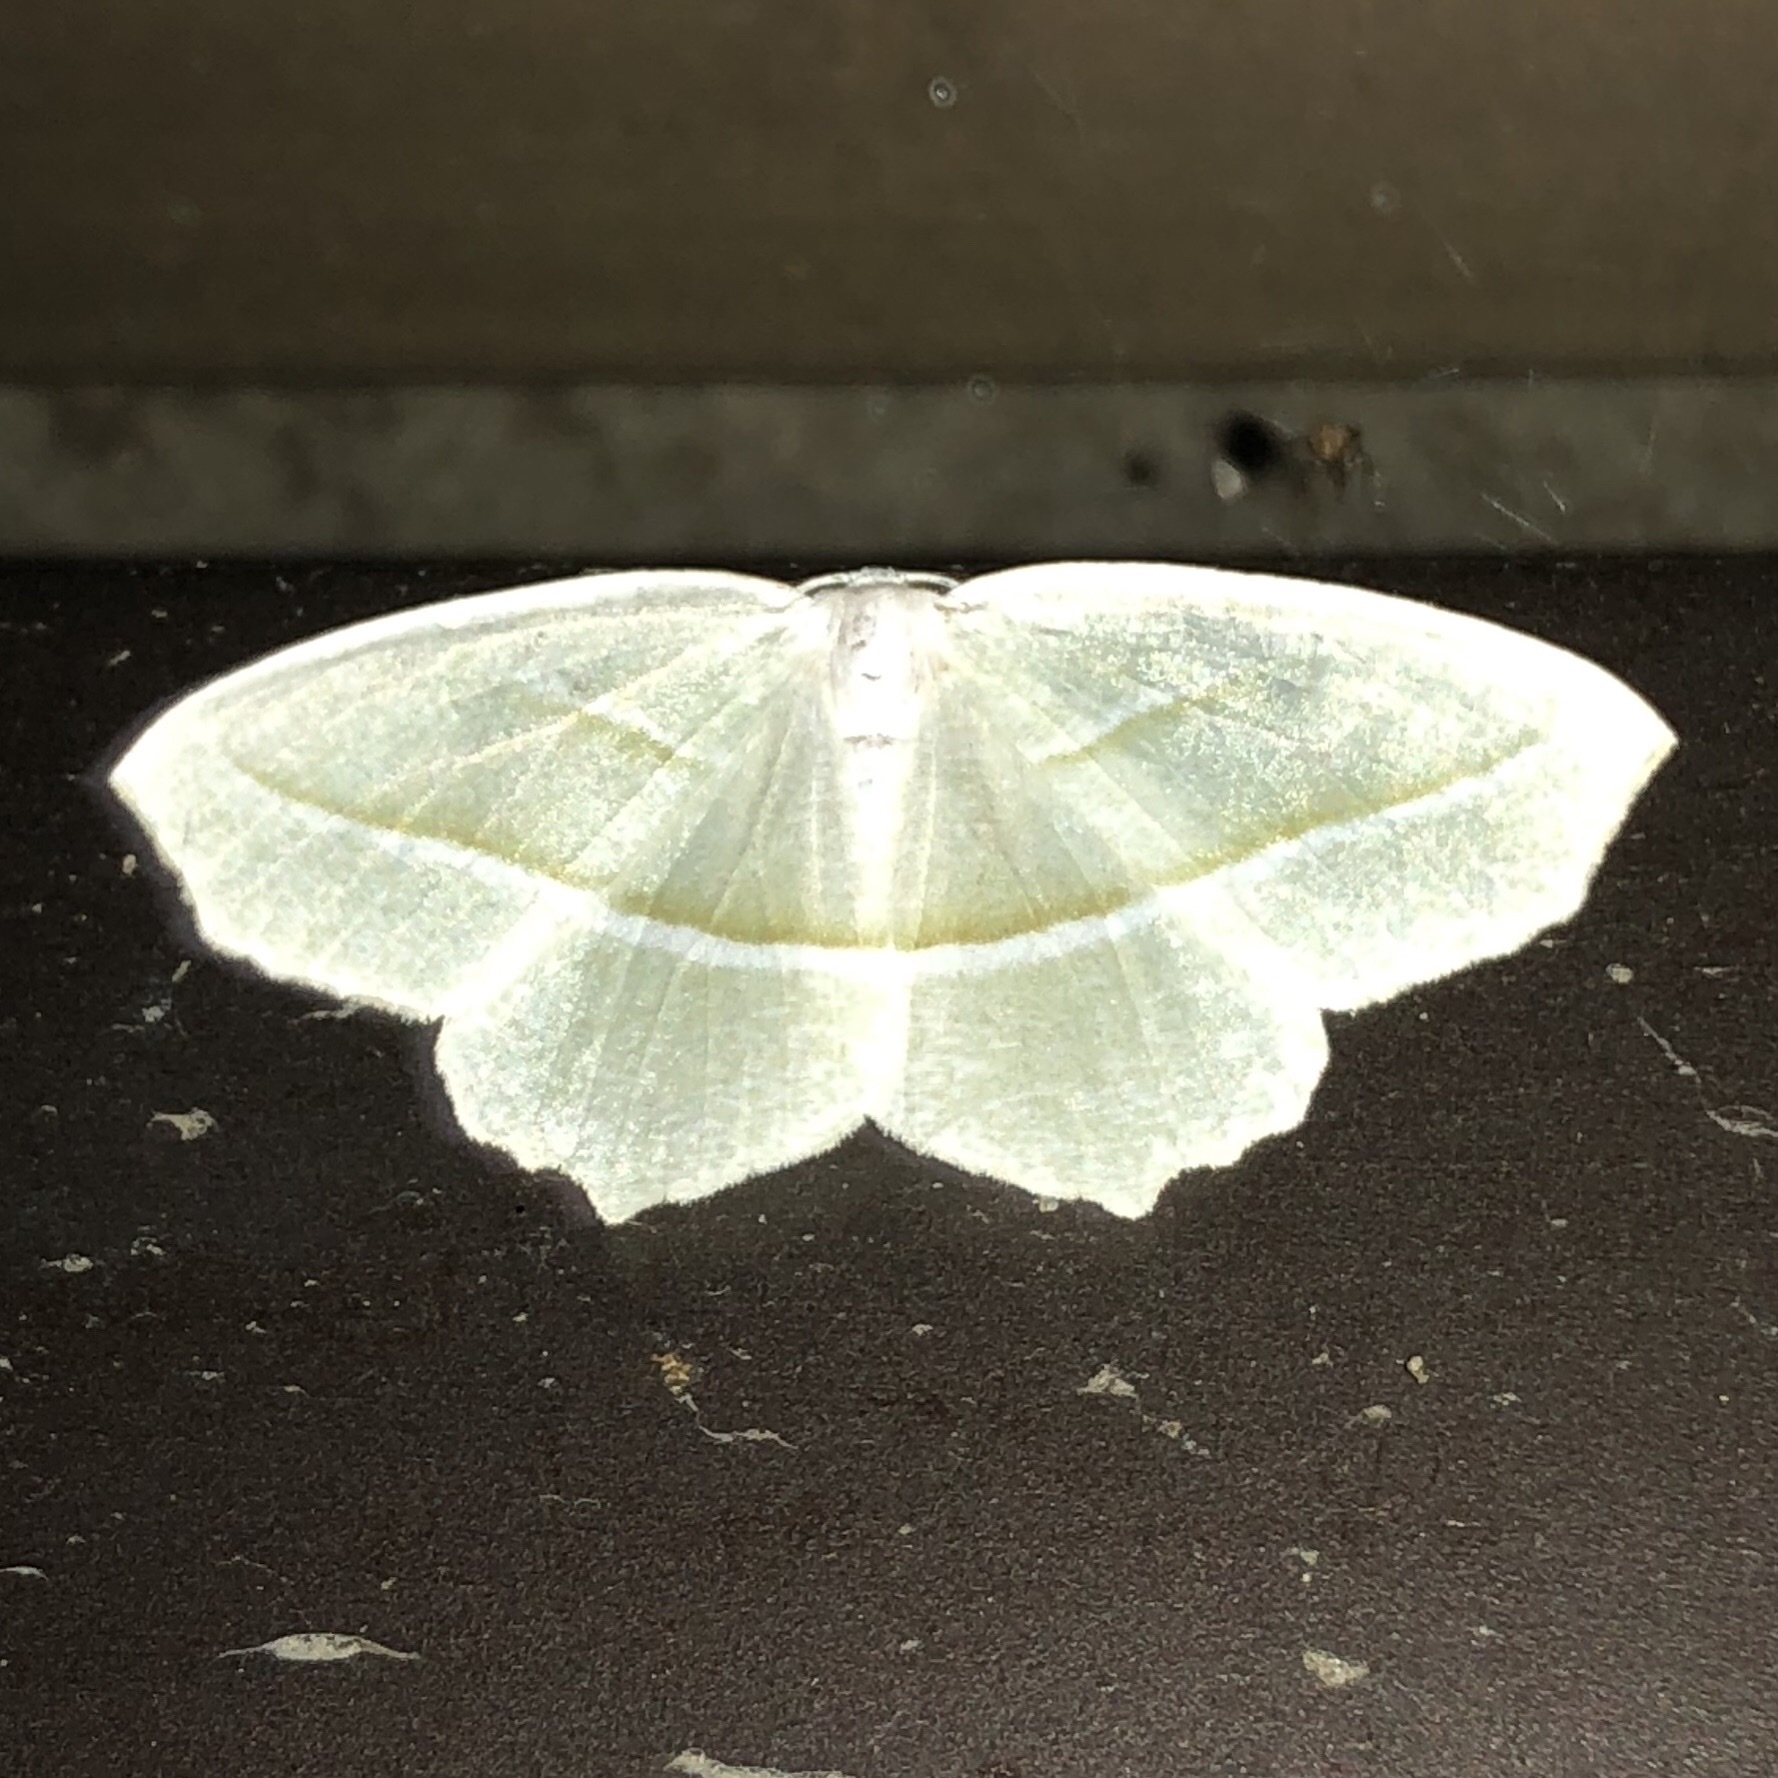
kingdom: Animalia
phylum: Arthropoda
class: Insecta
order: Lepidoptera
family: Geometridae
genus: Campaea
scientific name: Campaea perlata
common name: Fringed looper
